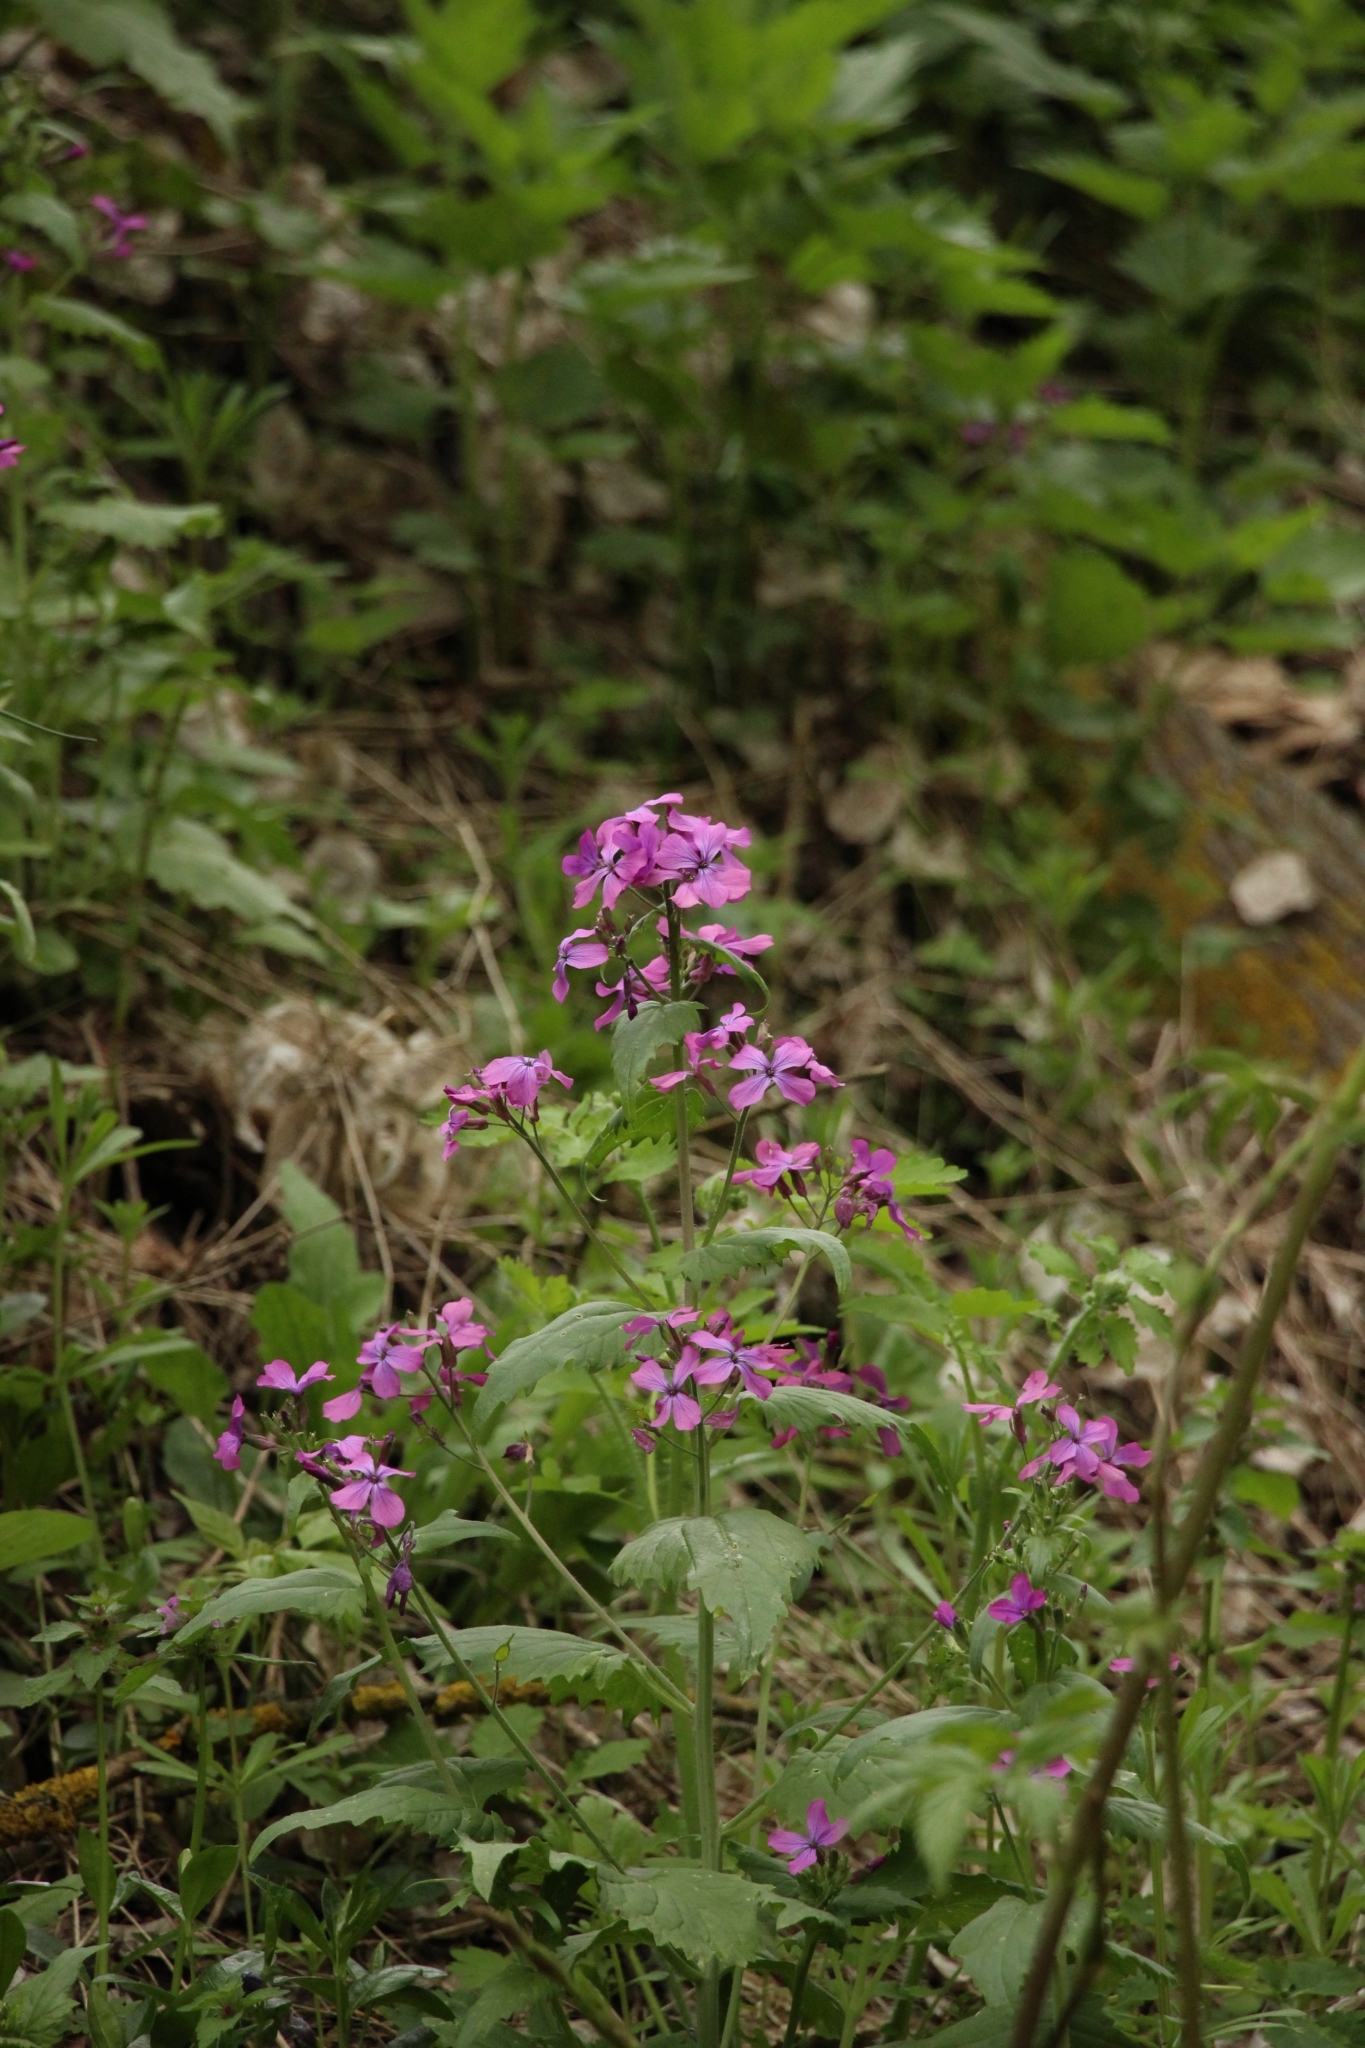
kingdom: Plantae
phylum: Tracheophyta
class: Magnoliopsida
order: Brassicales
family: Brassicaceae
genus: Lunaria
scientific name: Lunaria annua
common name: Honesty
